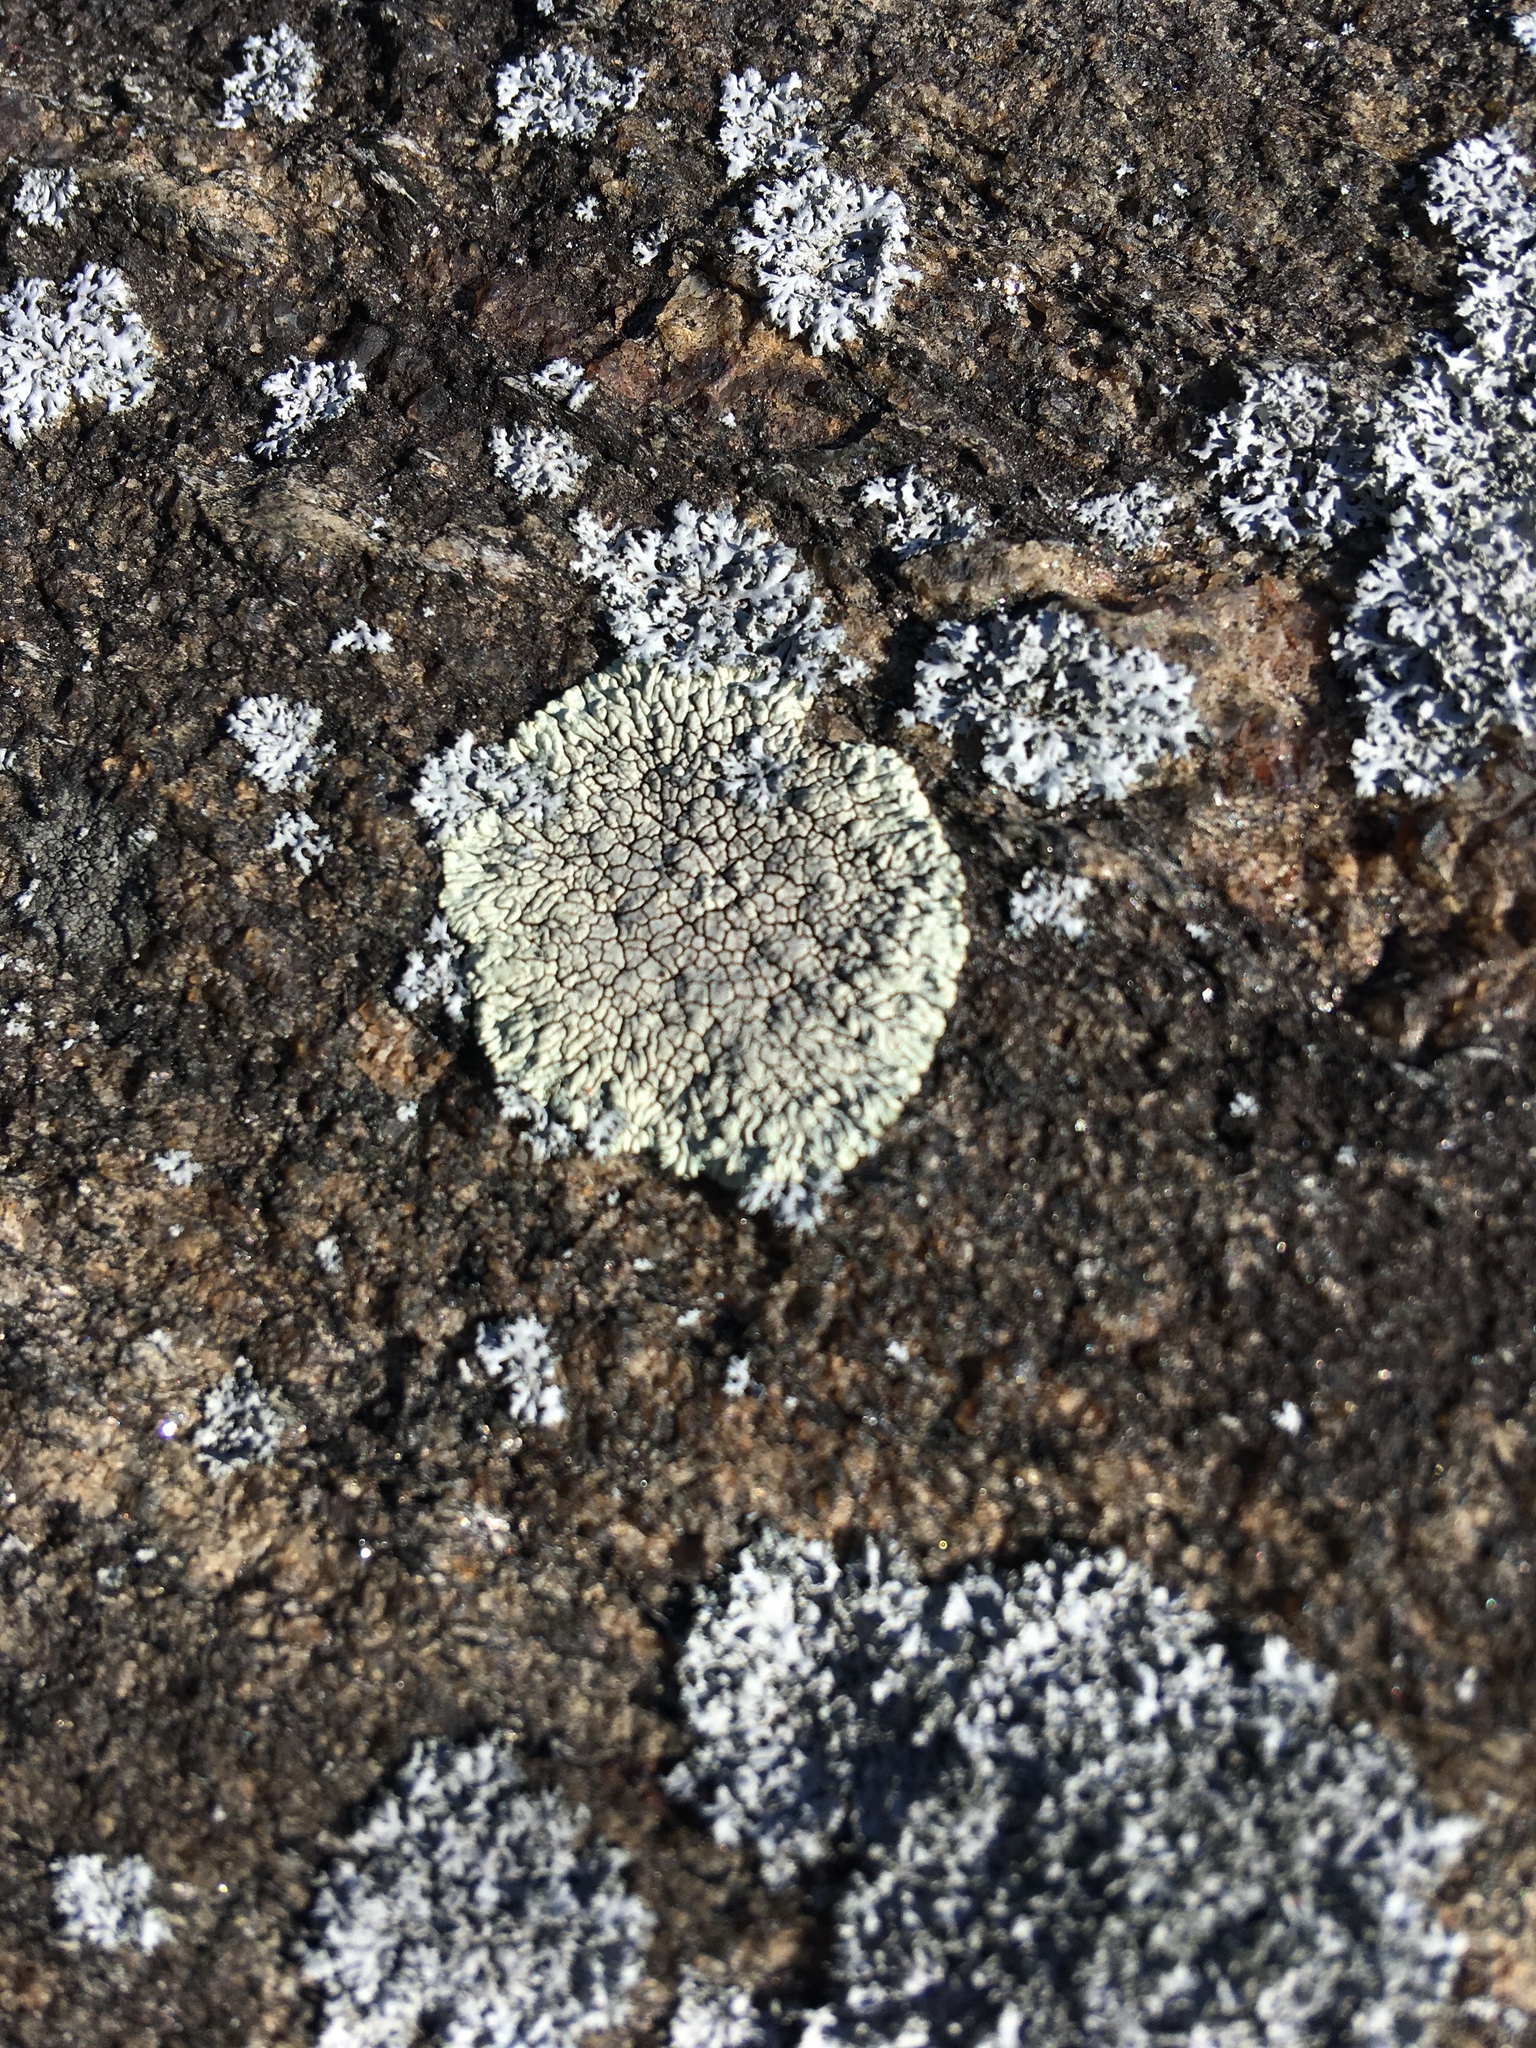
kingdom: Fungi
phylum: Ascomycota
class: Lecanoromycetes
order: Caliciales
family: Caliciaceae
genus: Dimelaena
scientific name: Dimelaena oreina
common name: Golden moonglow lichen
